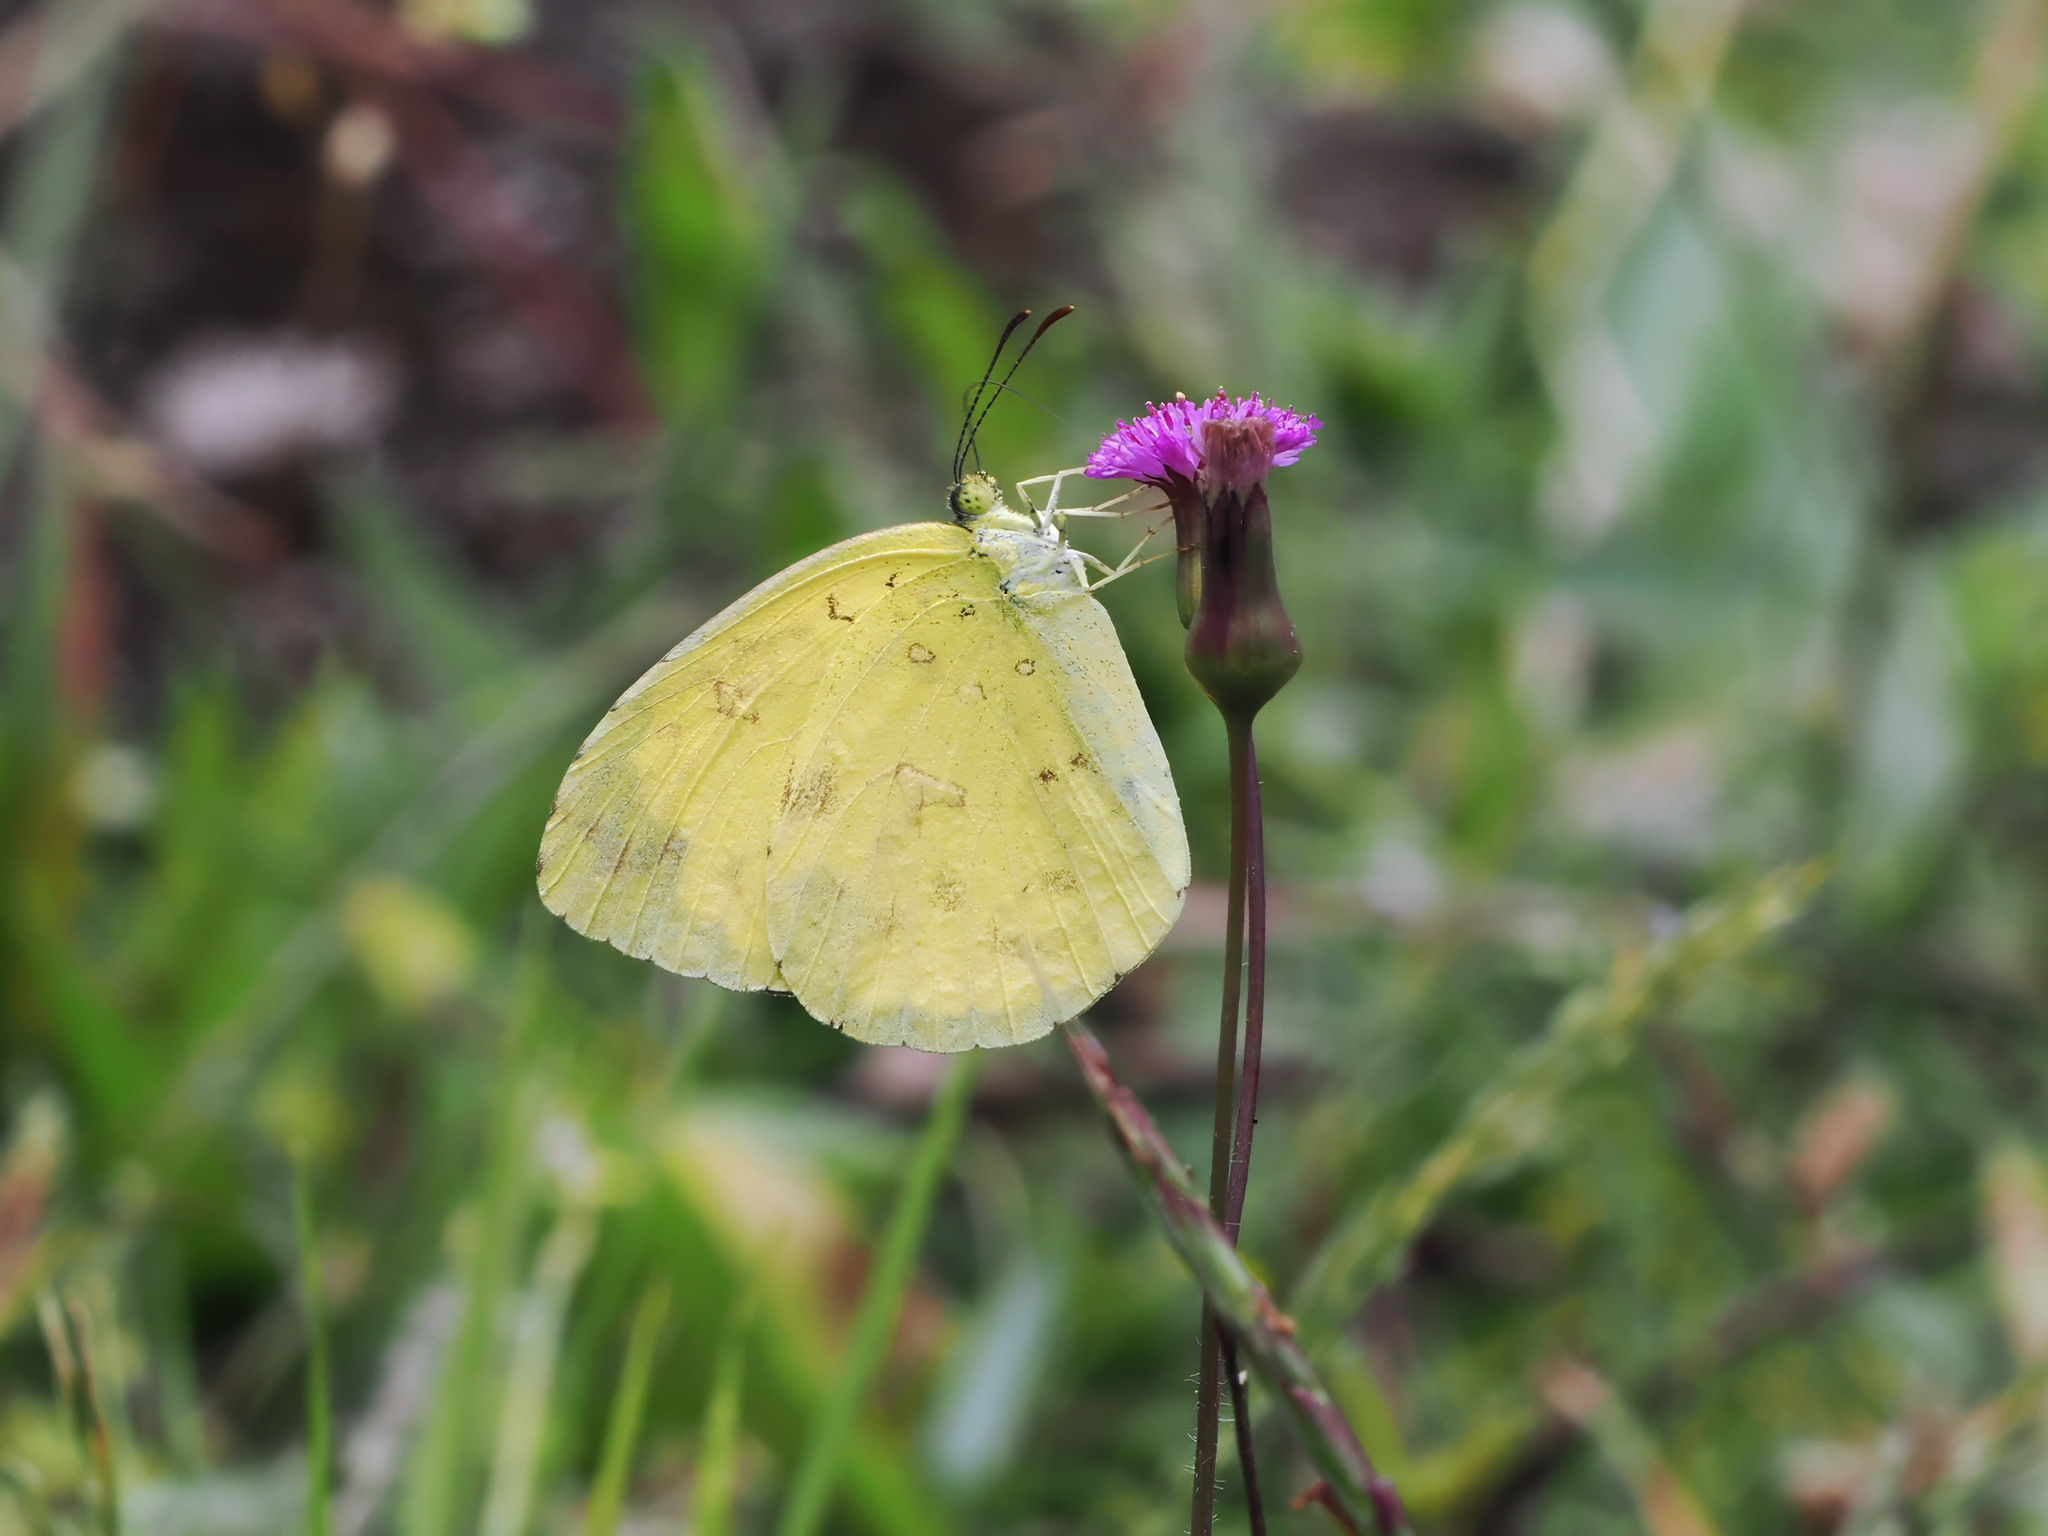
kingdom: Animalia
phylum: Arthropoda
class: Insecta
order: Lepidoptera
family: Pieridae
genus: Eurema
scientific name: Eurema hecabe
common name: Pale grass yellow
